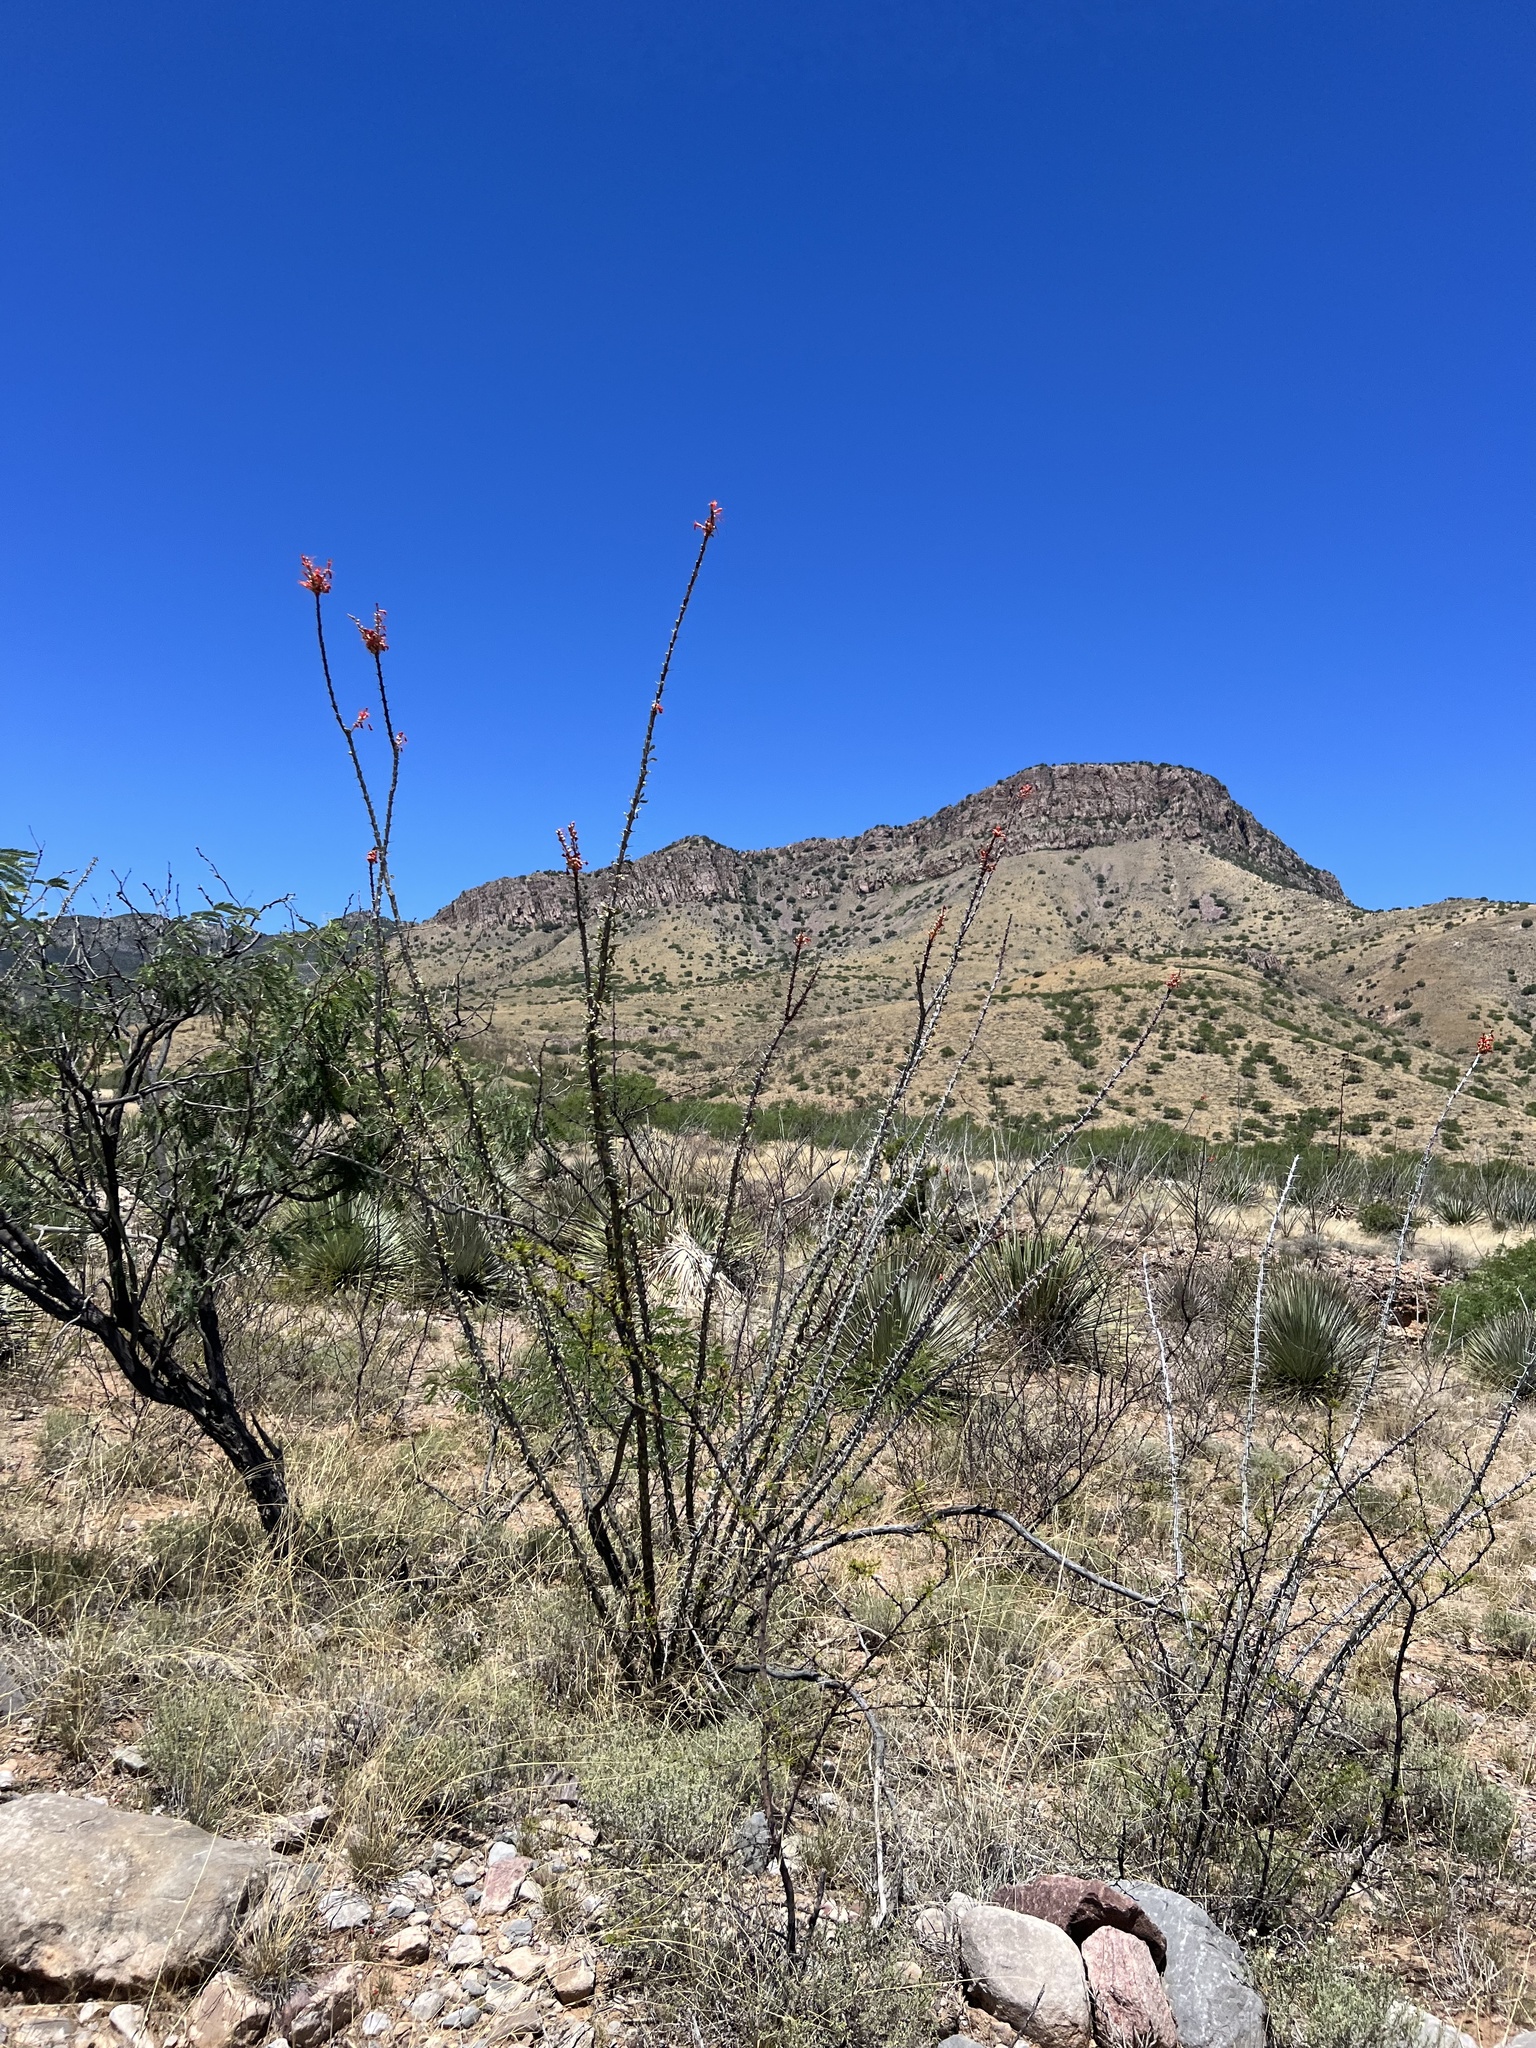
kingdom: Plantae
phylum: Tracheophyta
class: Magnoliopsida
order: Ericales
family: Fouquieriaceae
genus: Fouquieria
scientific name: Fouquieria splendens
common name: Vine-cactus
